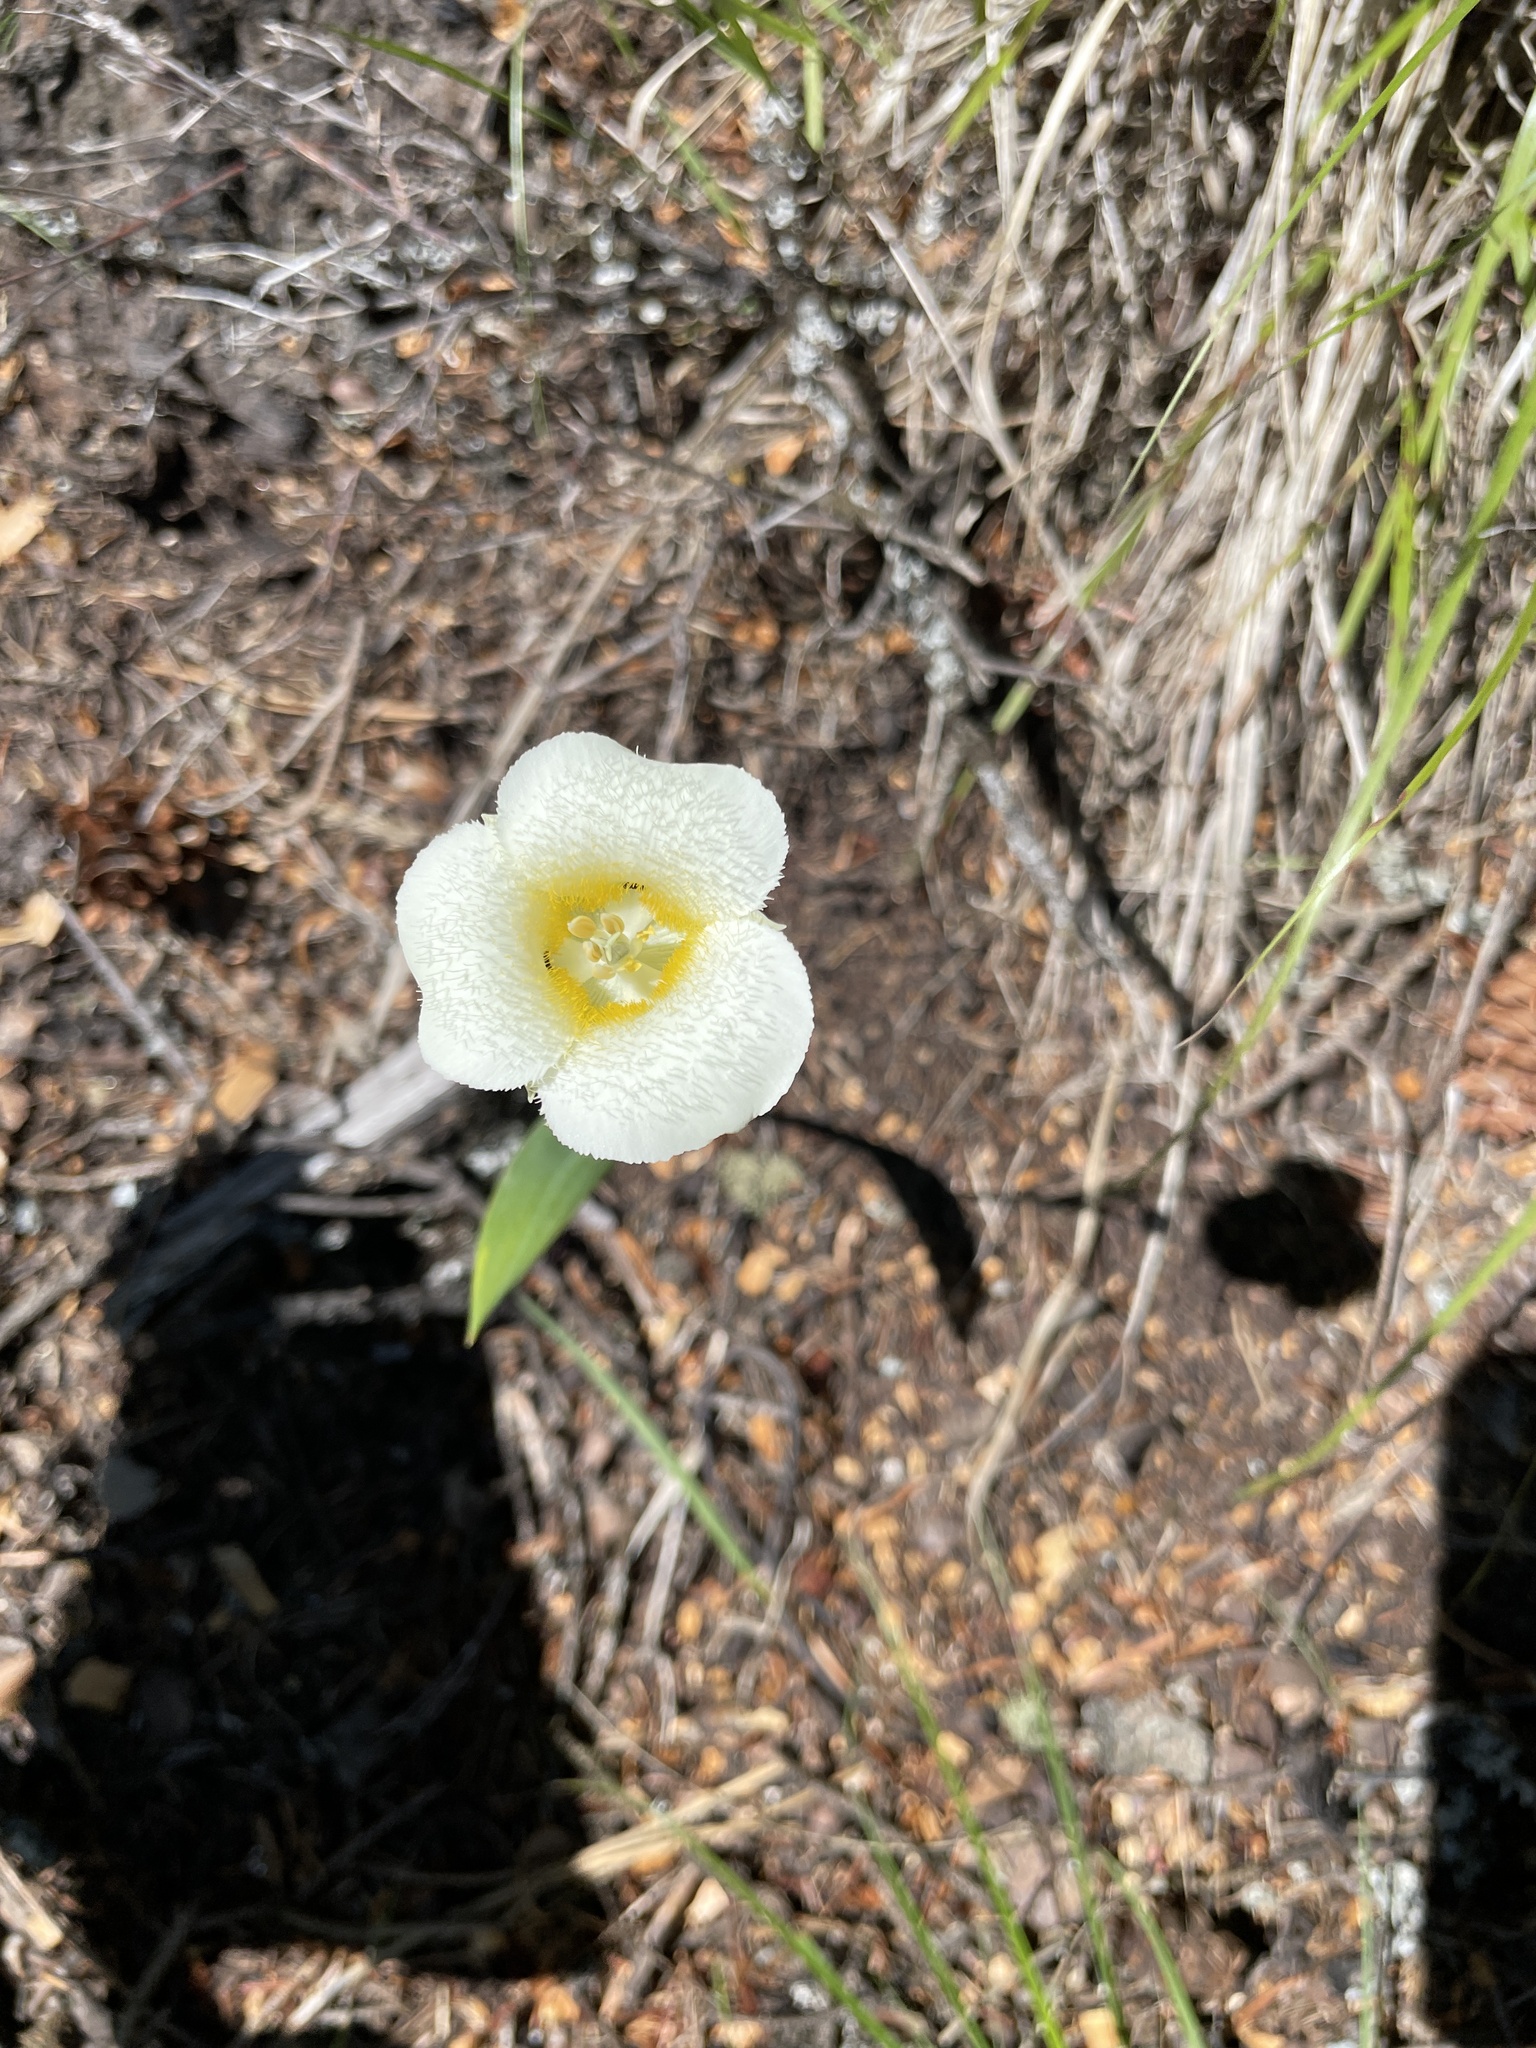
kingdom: Plantae
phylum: Tracheophyta
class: Liliopsida
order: Liliales
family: Liliaceae
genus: Calochortus
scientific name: Calochortus apiculatus
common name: Baker's mariposa lily
